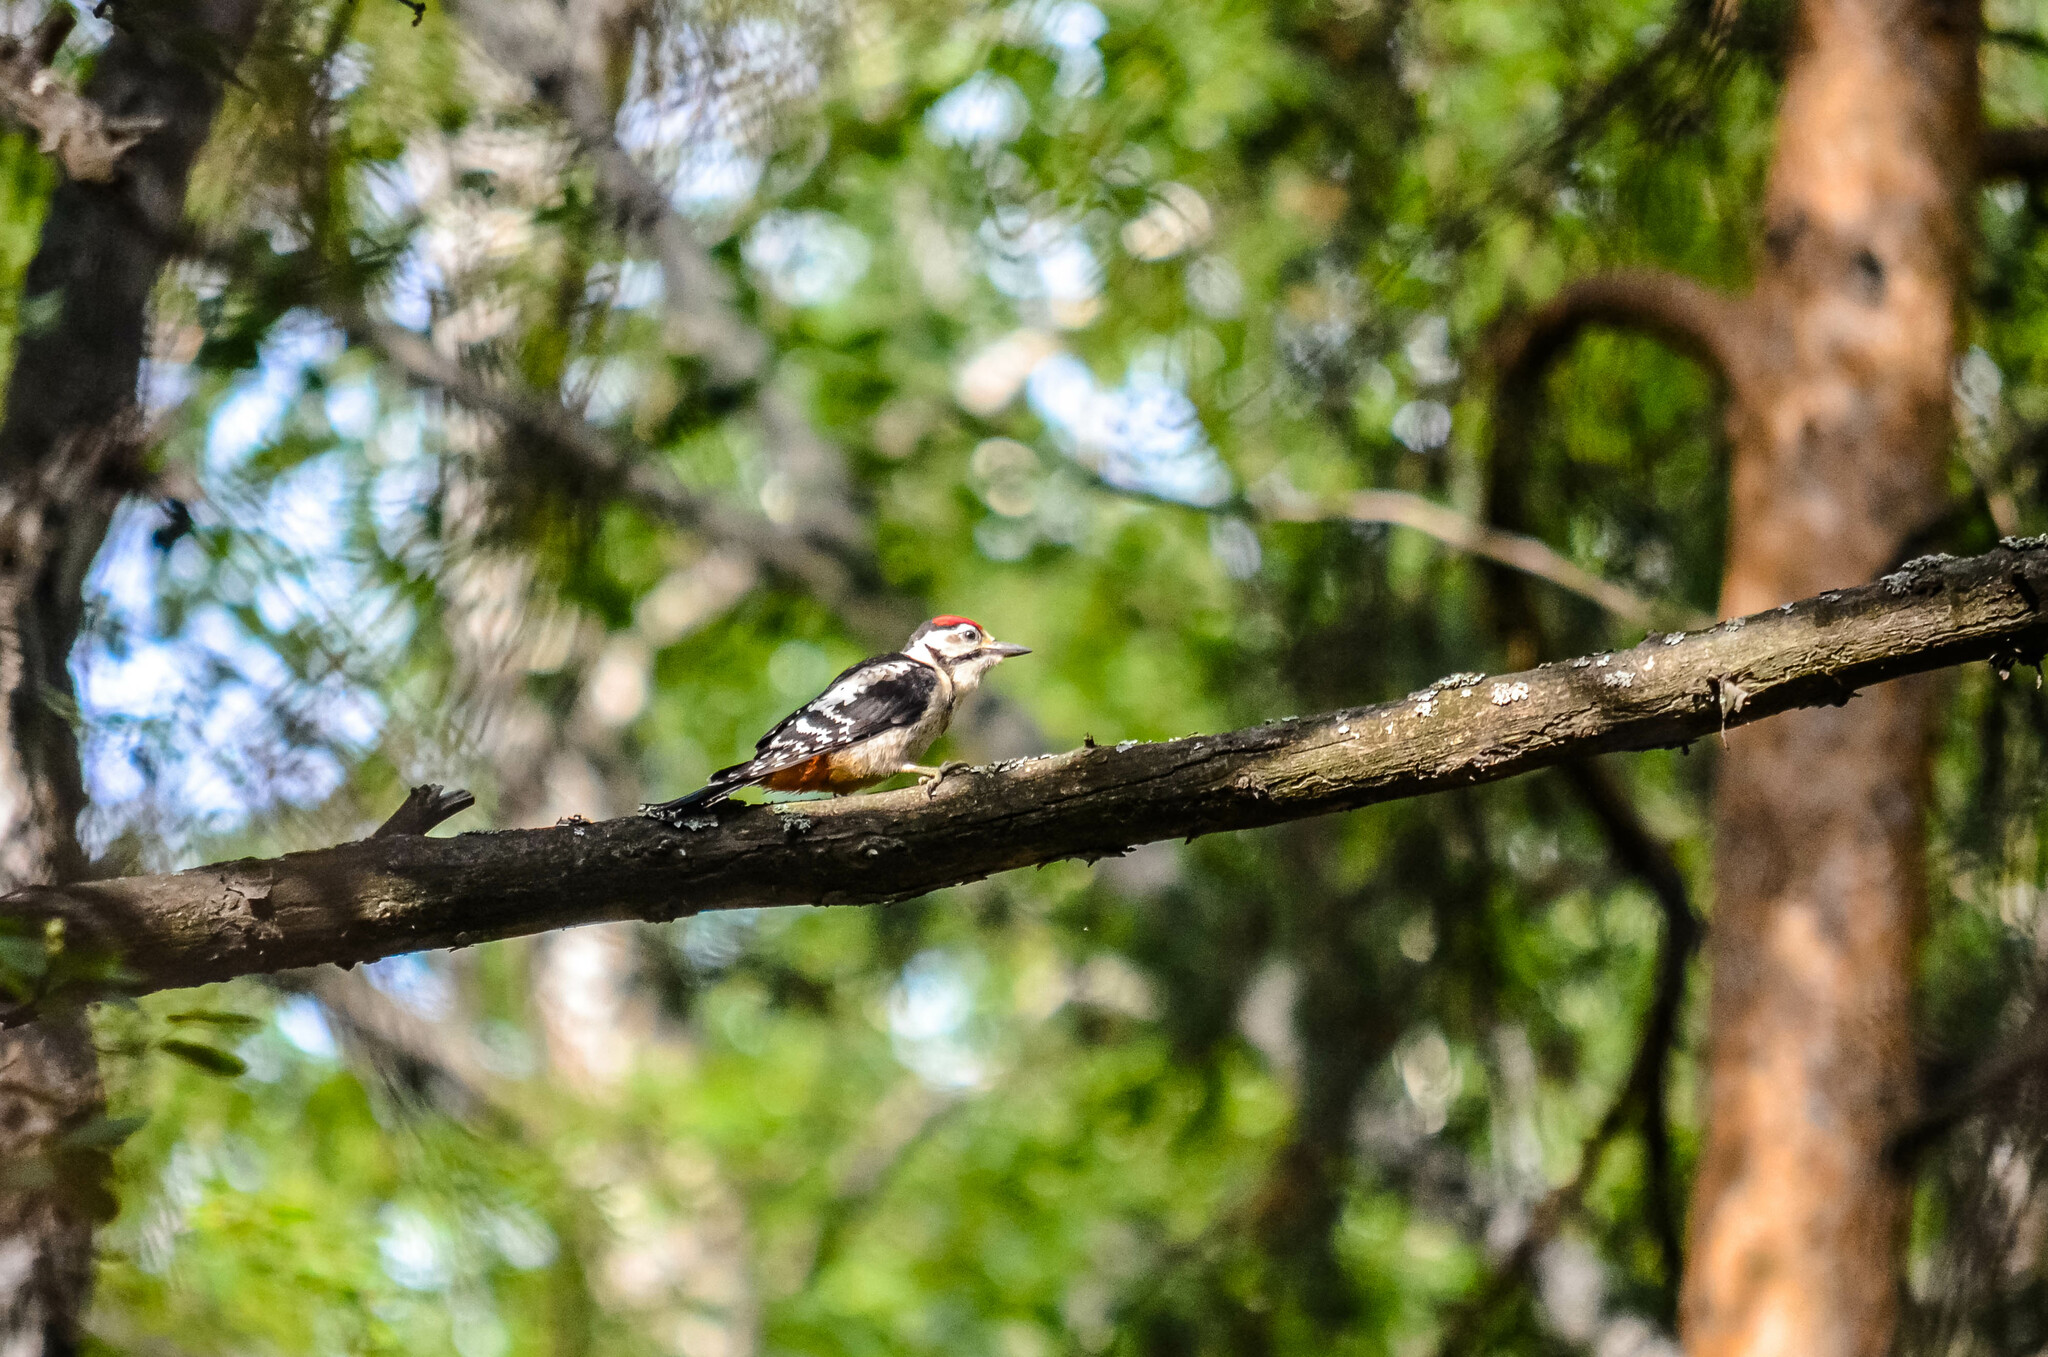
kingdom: Animalia
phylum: Chordata
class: Aves
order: Piciformes
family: Picidae
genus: Dendrocopos
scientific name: Dendrocopos major
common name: Great spotted woodpecker
